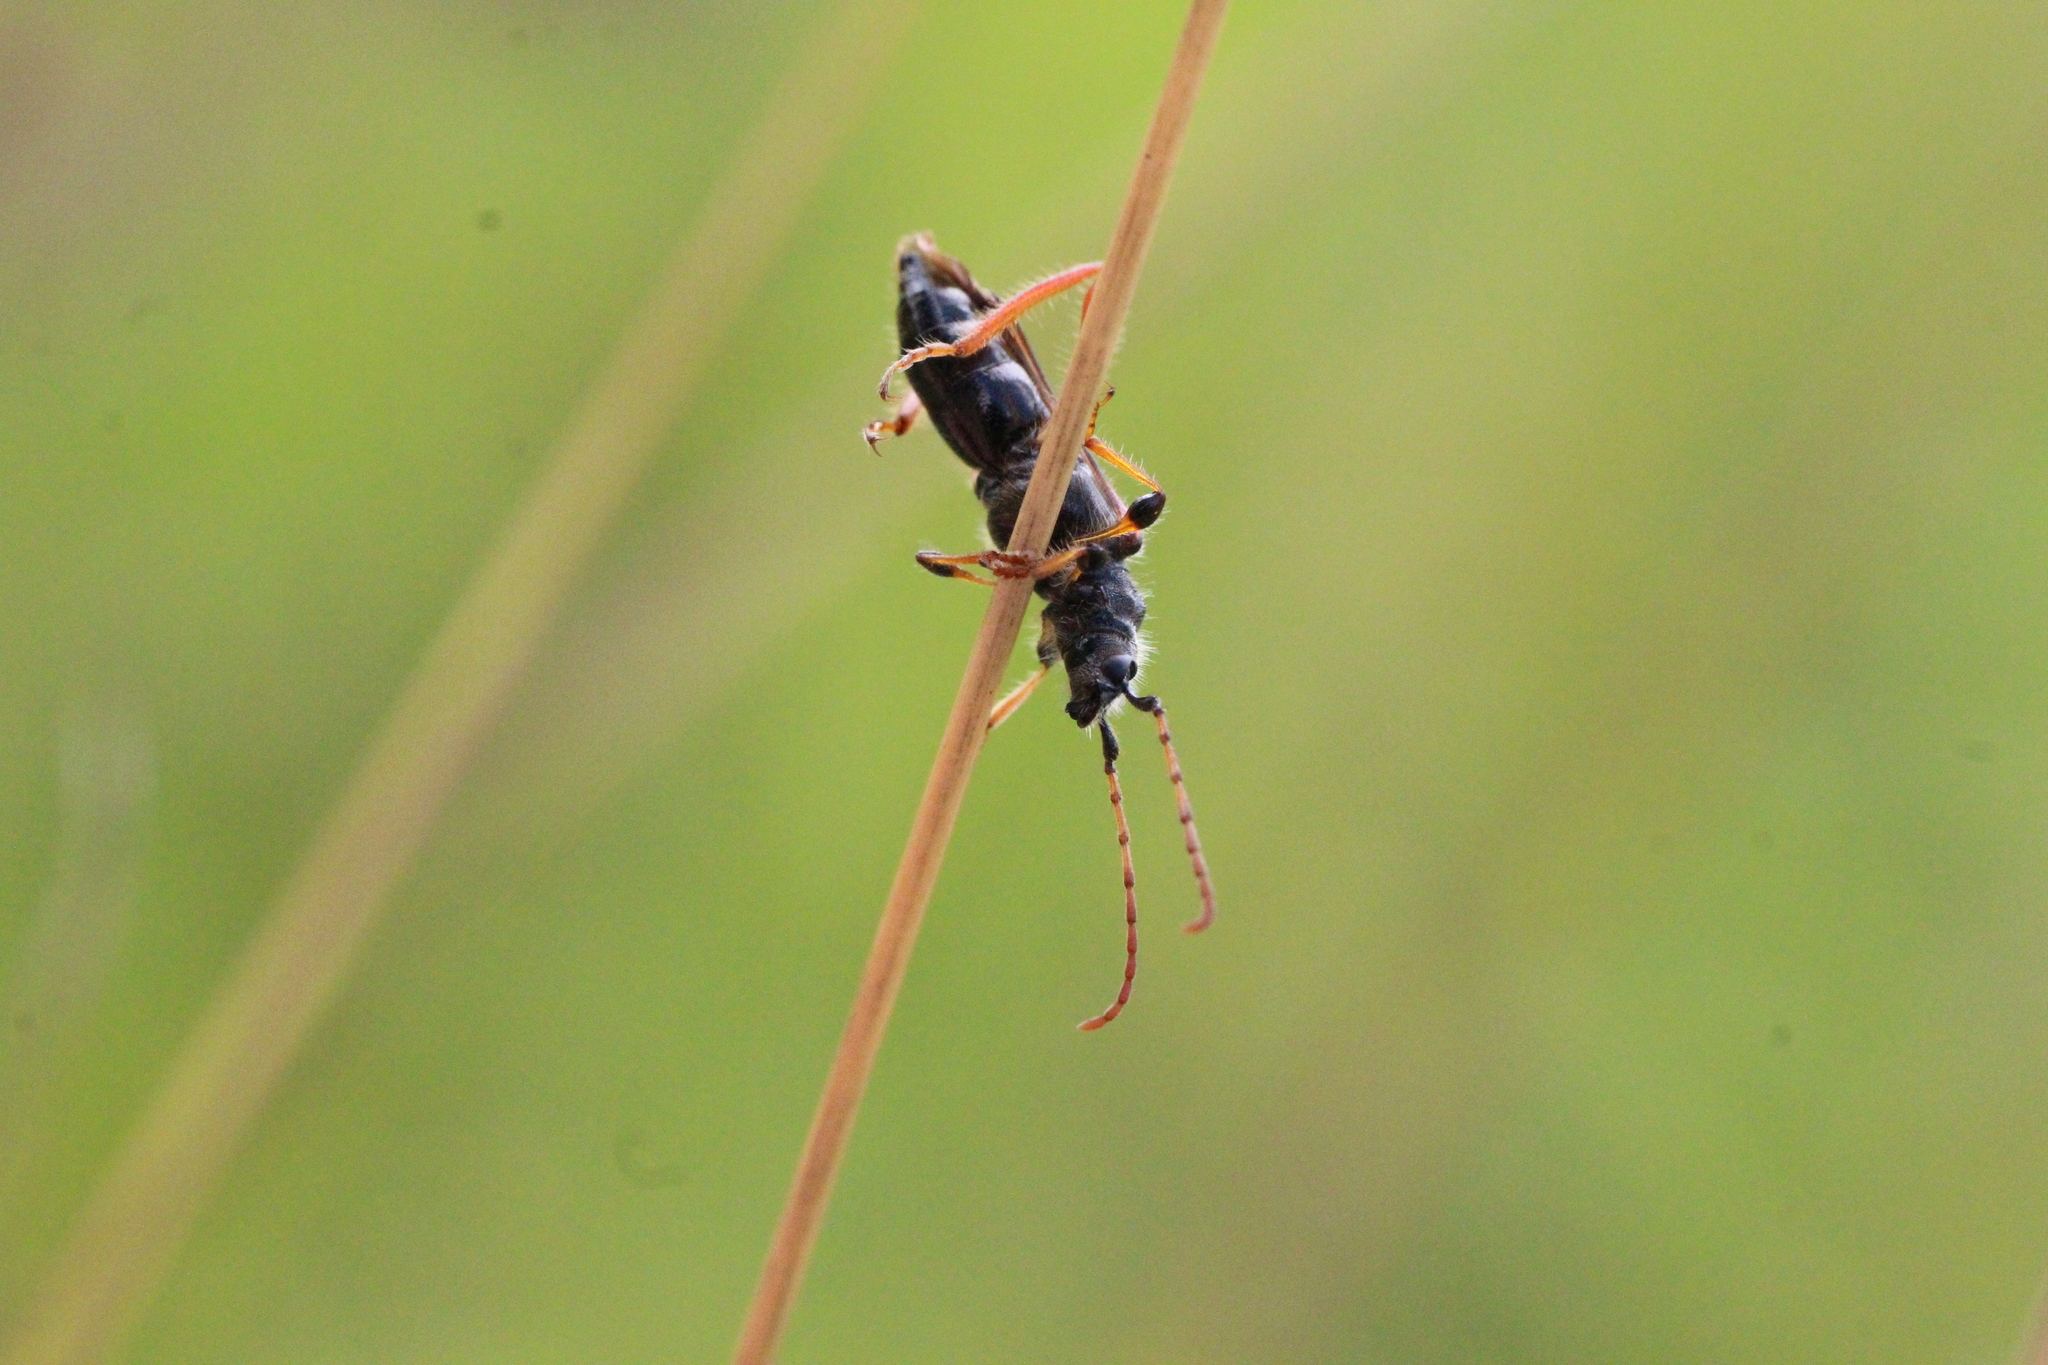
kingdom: Animalia
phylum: Arthropoda
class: Insecta
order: Coleoptera
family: Cerambycidae
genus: Stenopterus
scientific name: Stenopterus rufus
